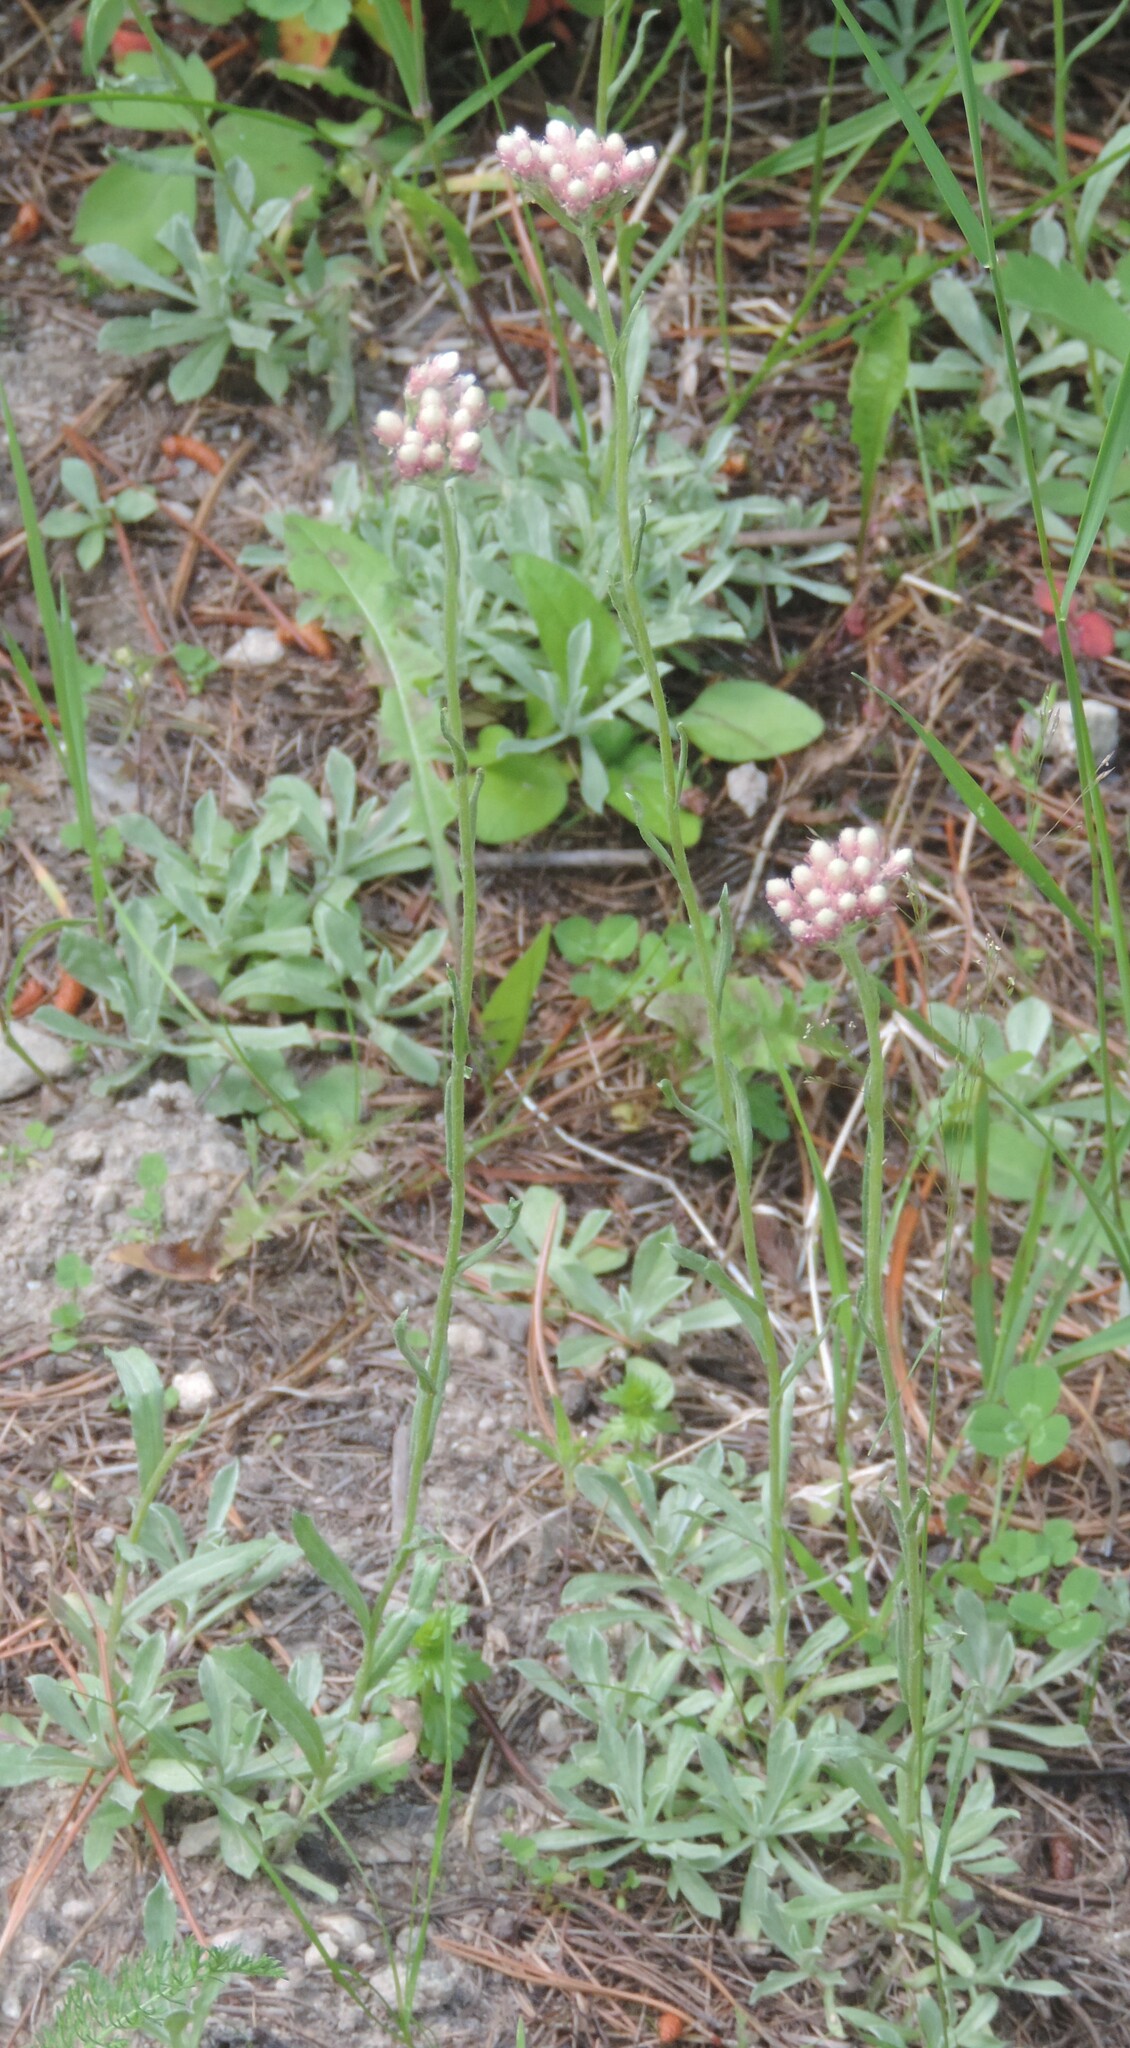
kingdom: Plantae
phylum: Tracheophyta
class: Magnoliopsida
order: Asterales
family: Asteraceae
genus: Antennaria
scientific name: Antennaria rosea
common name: Rosy pussytoes
